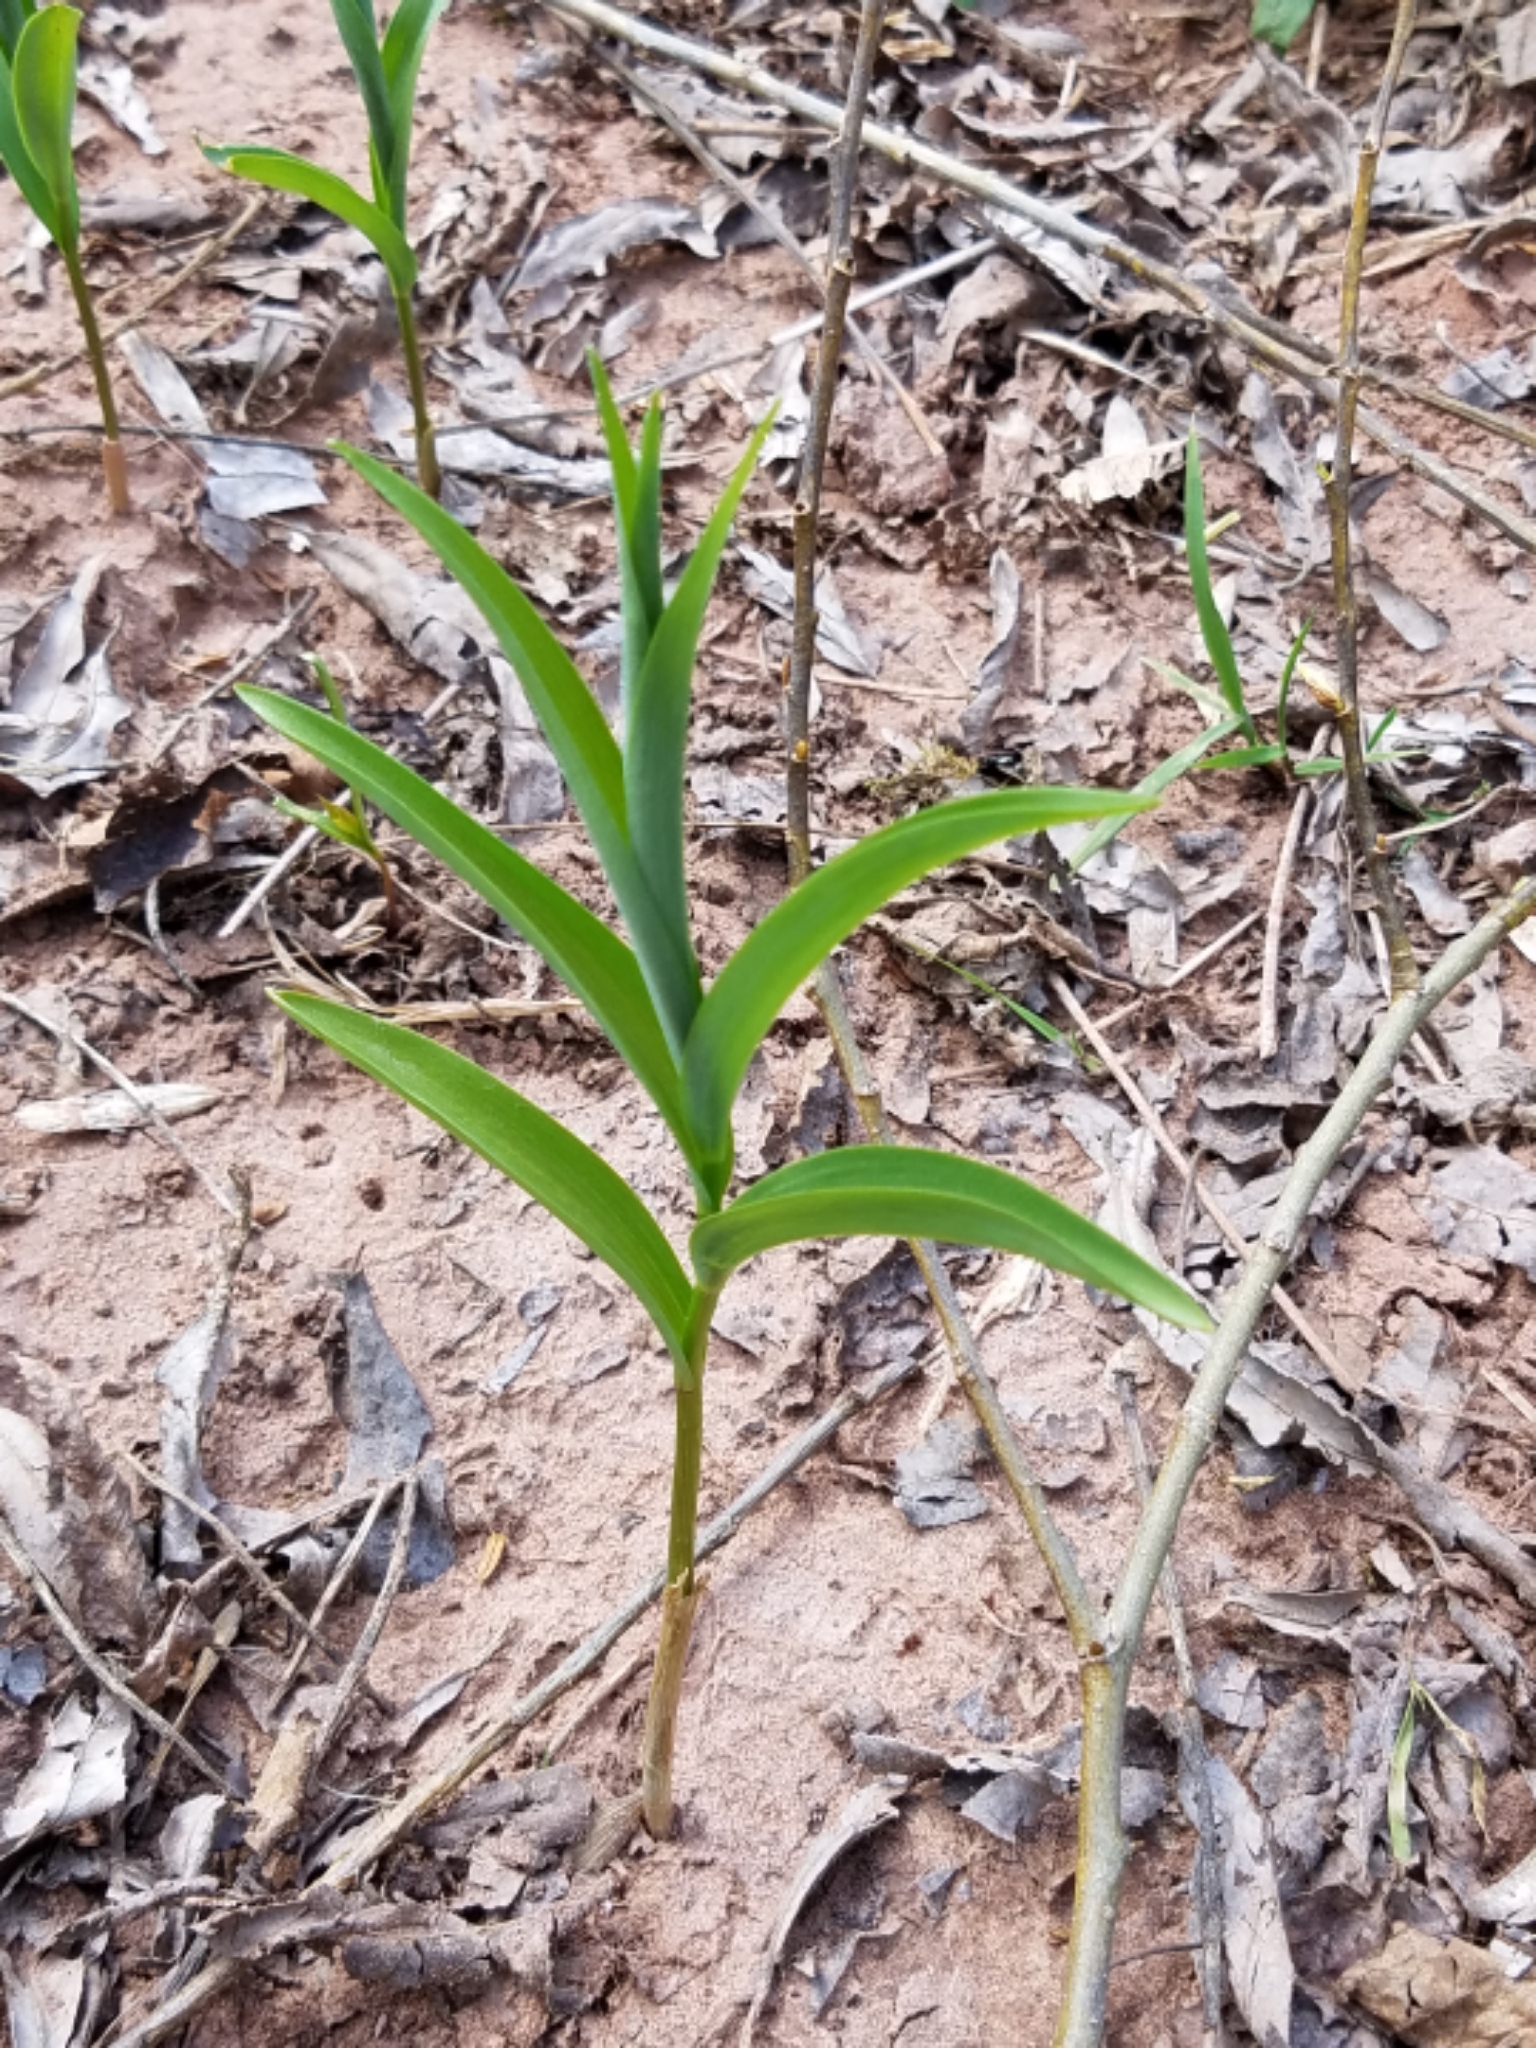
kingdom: Plantae
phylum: Tracheophyta
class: Liliopsida
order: Asparagales
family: Asparagaceae
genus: Maianthemum
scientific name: Maianthemum stellatum
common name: Little false solomon's seal
